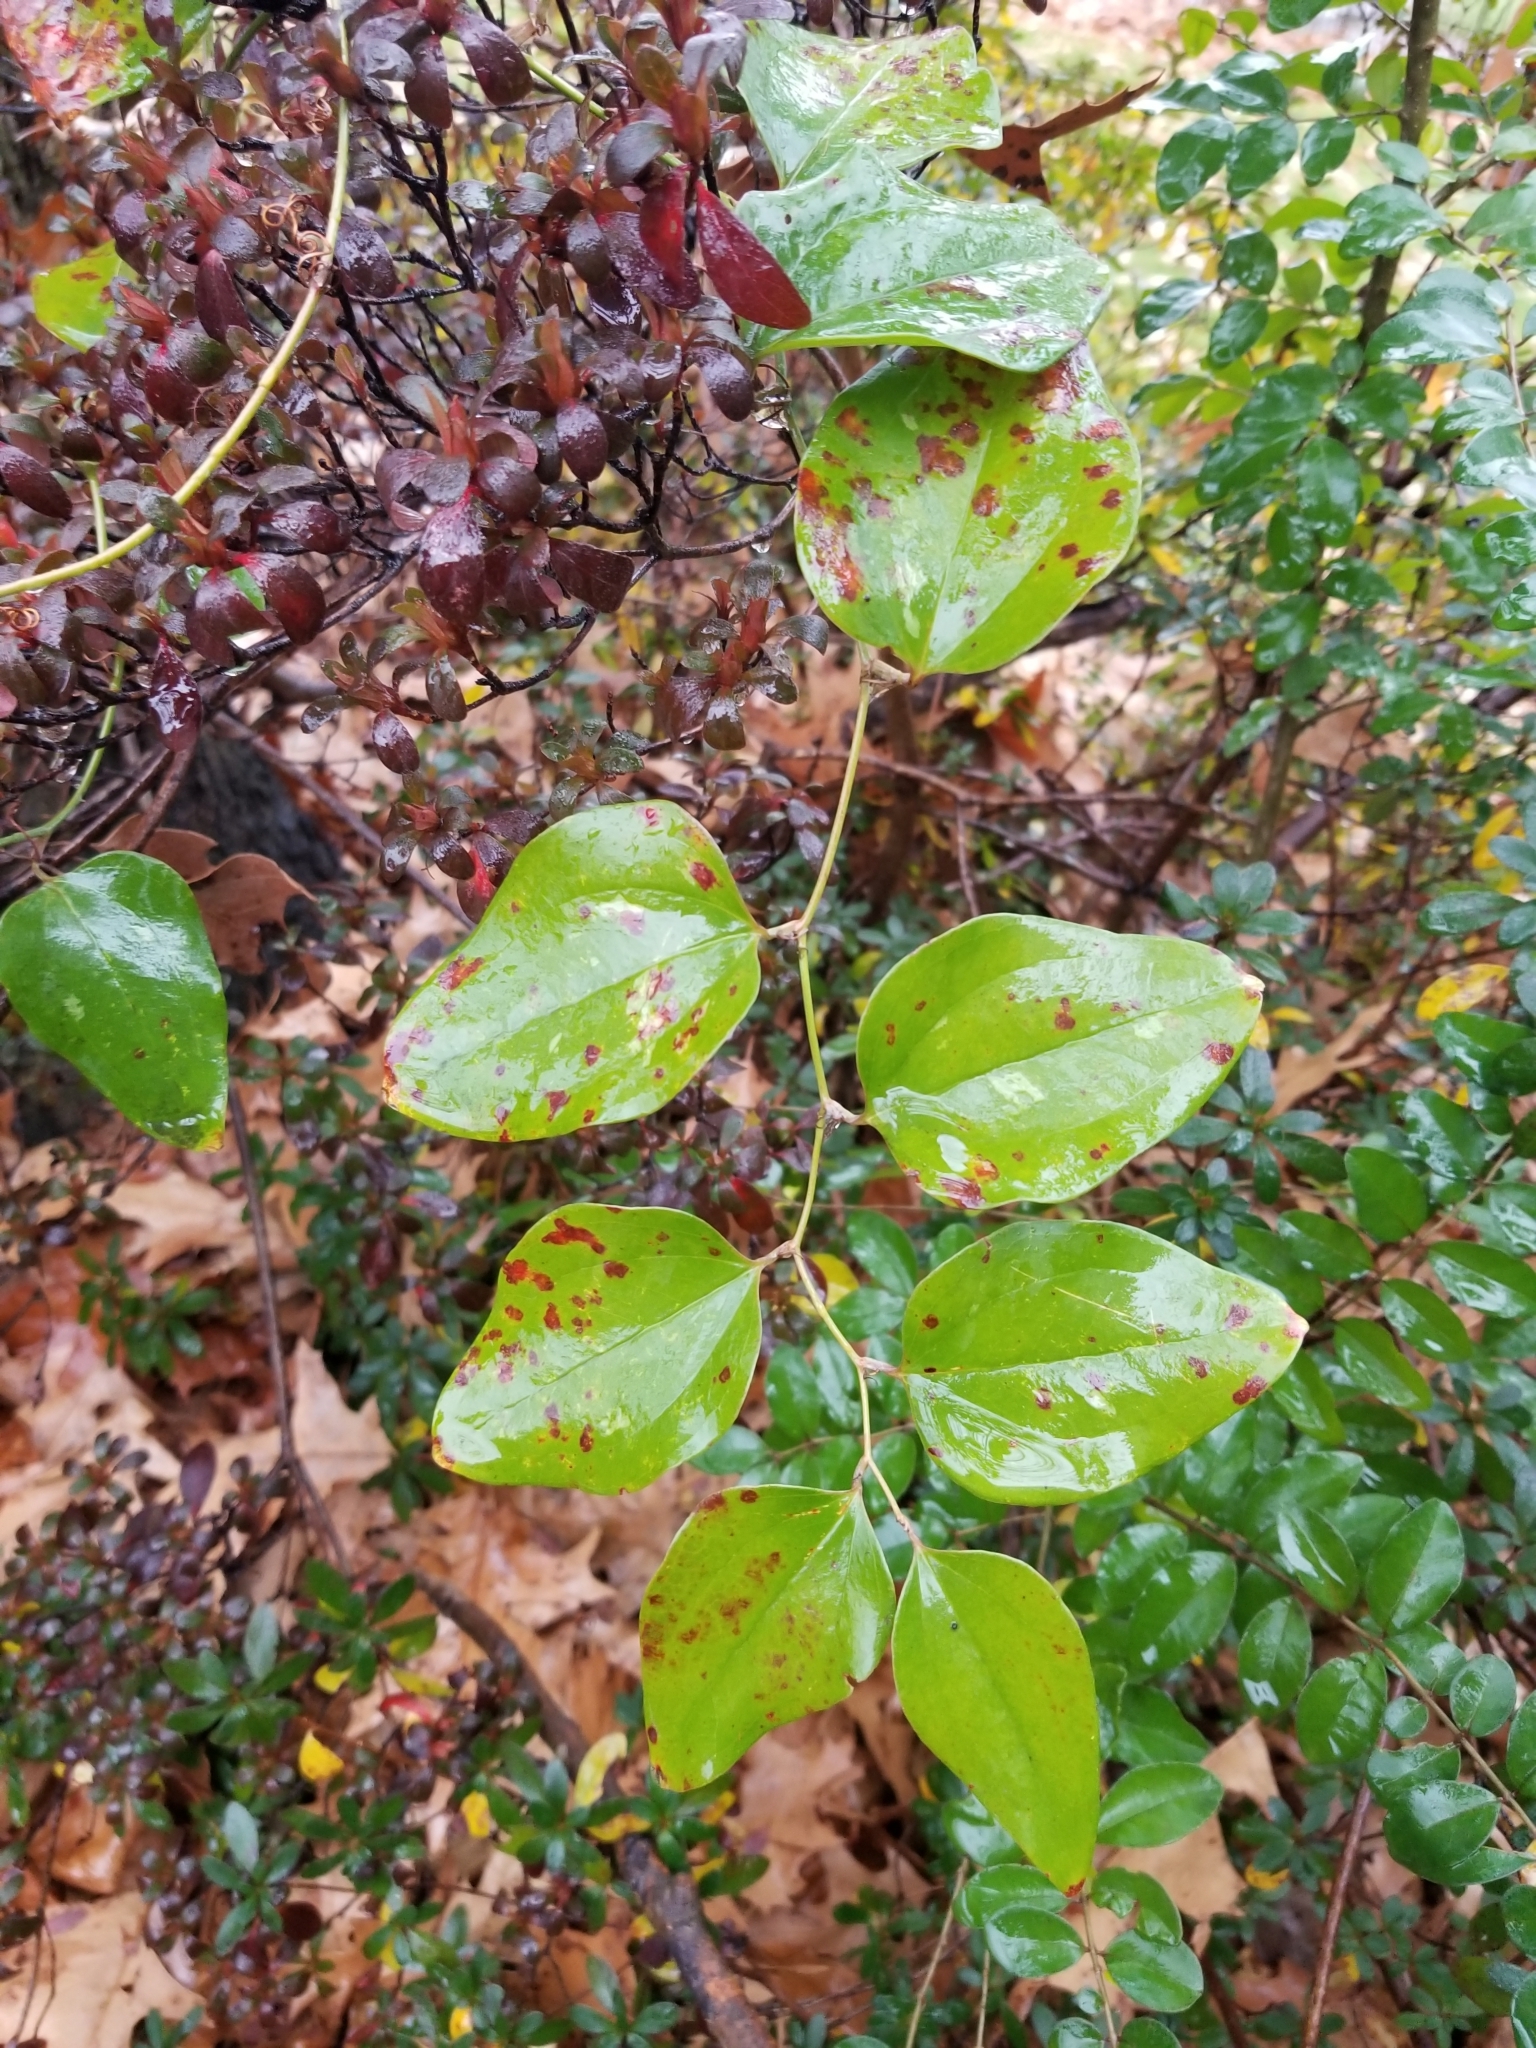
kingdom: Plantae
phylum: Tracheophyta
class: Liliopsida
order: Liliales
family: Smilacaceae
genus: Smilax
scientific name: Smilax glauca
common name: Cat greenbrier
